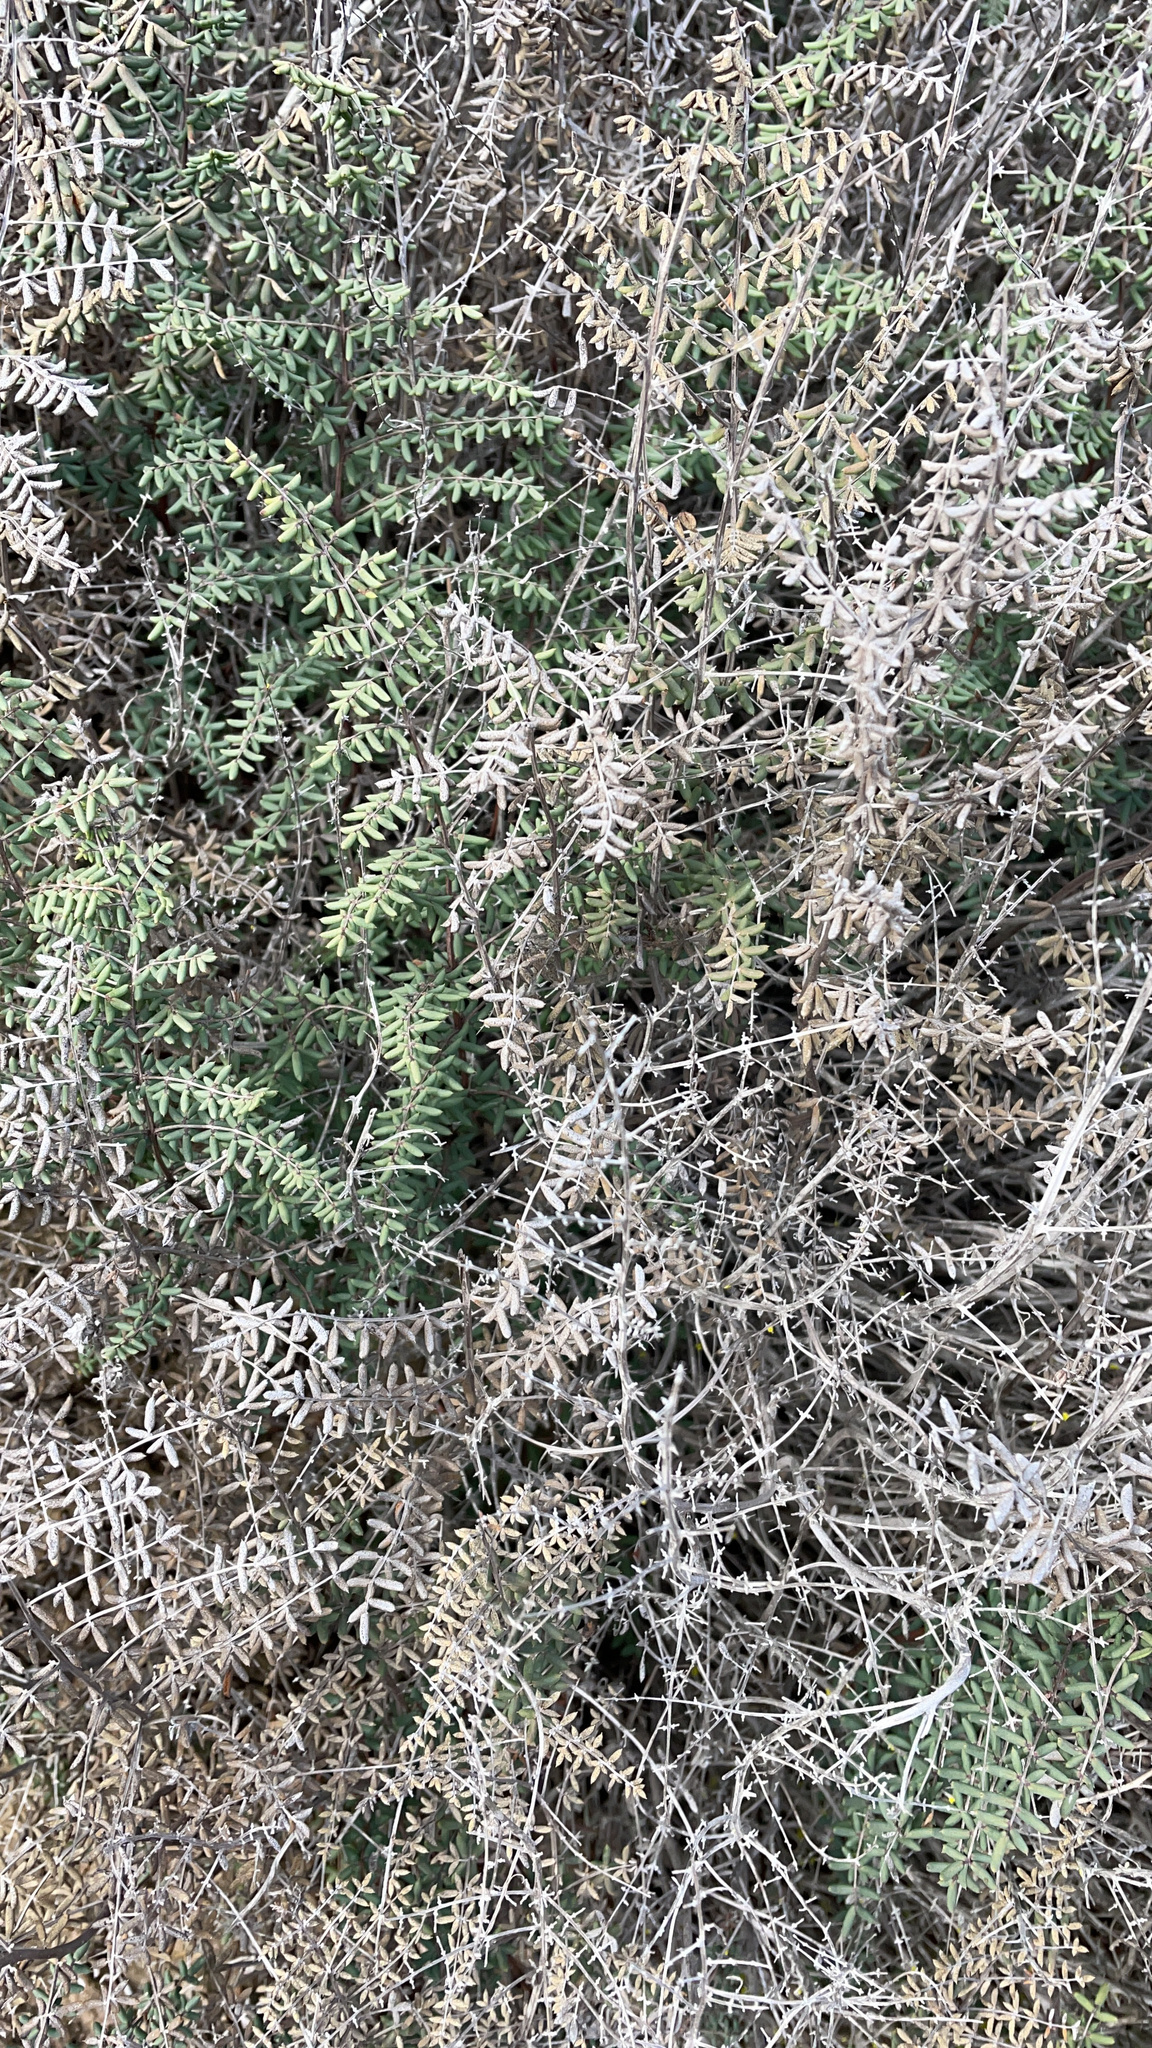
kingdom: Plantae
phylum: Tracheophyta
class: Polypodiopsida
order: Polypodiales
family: Pteridaceae
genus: Pellaea
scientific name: Pellaea mucronata
